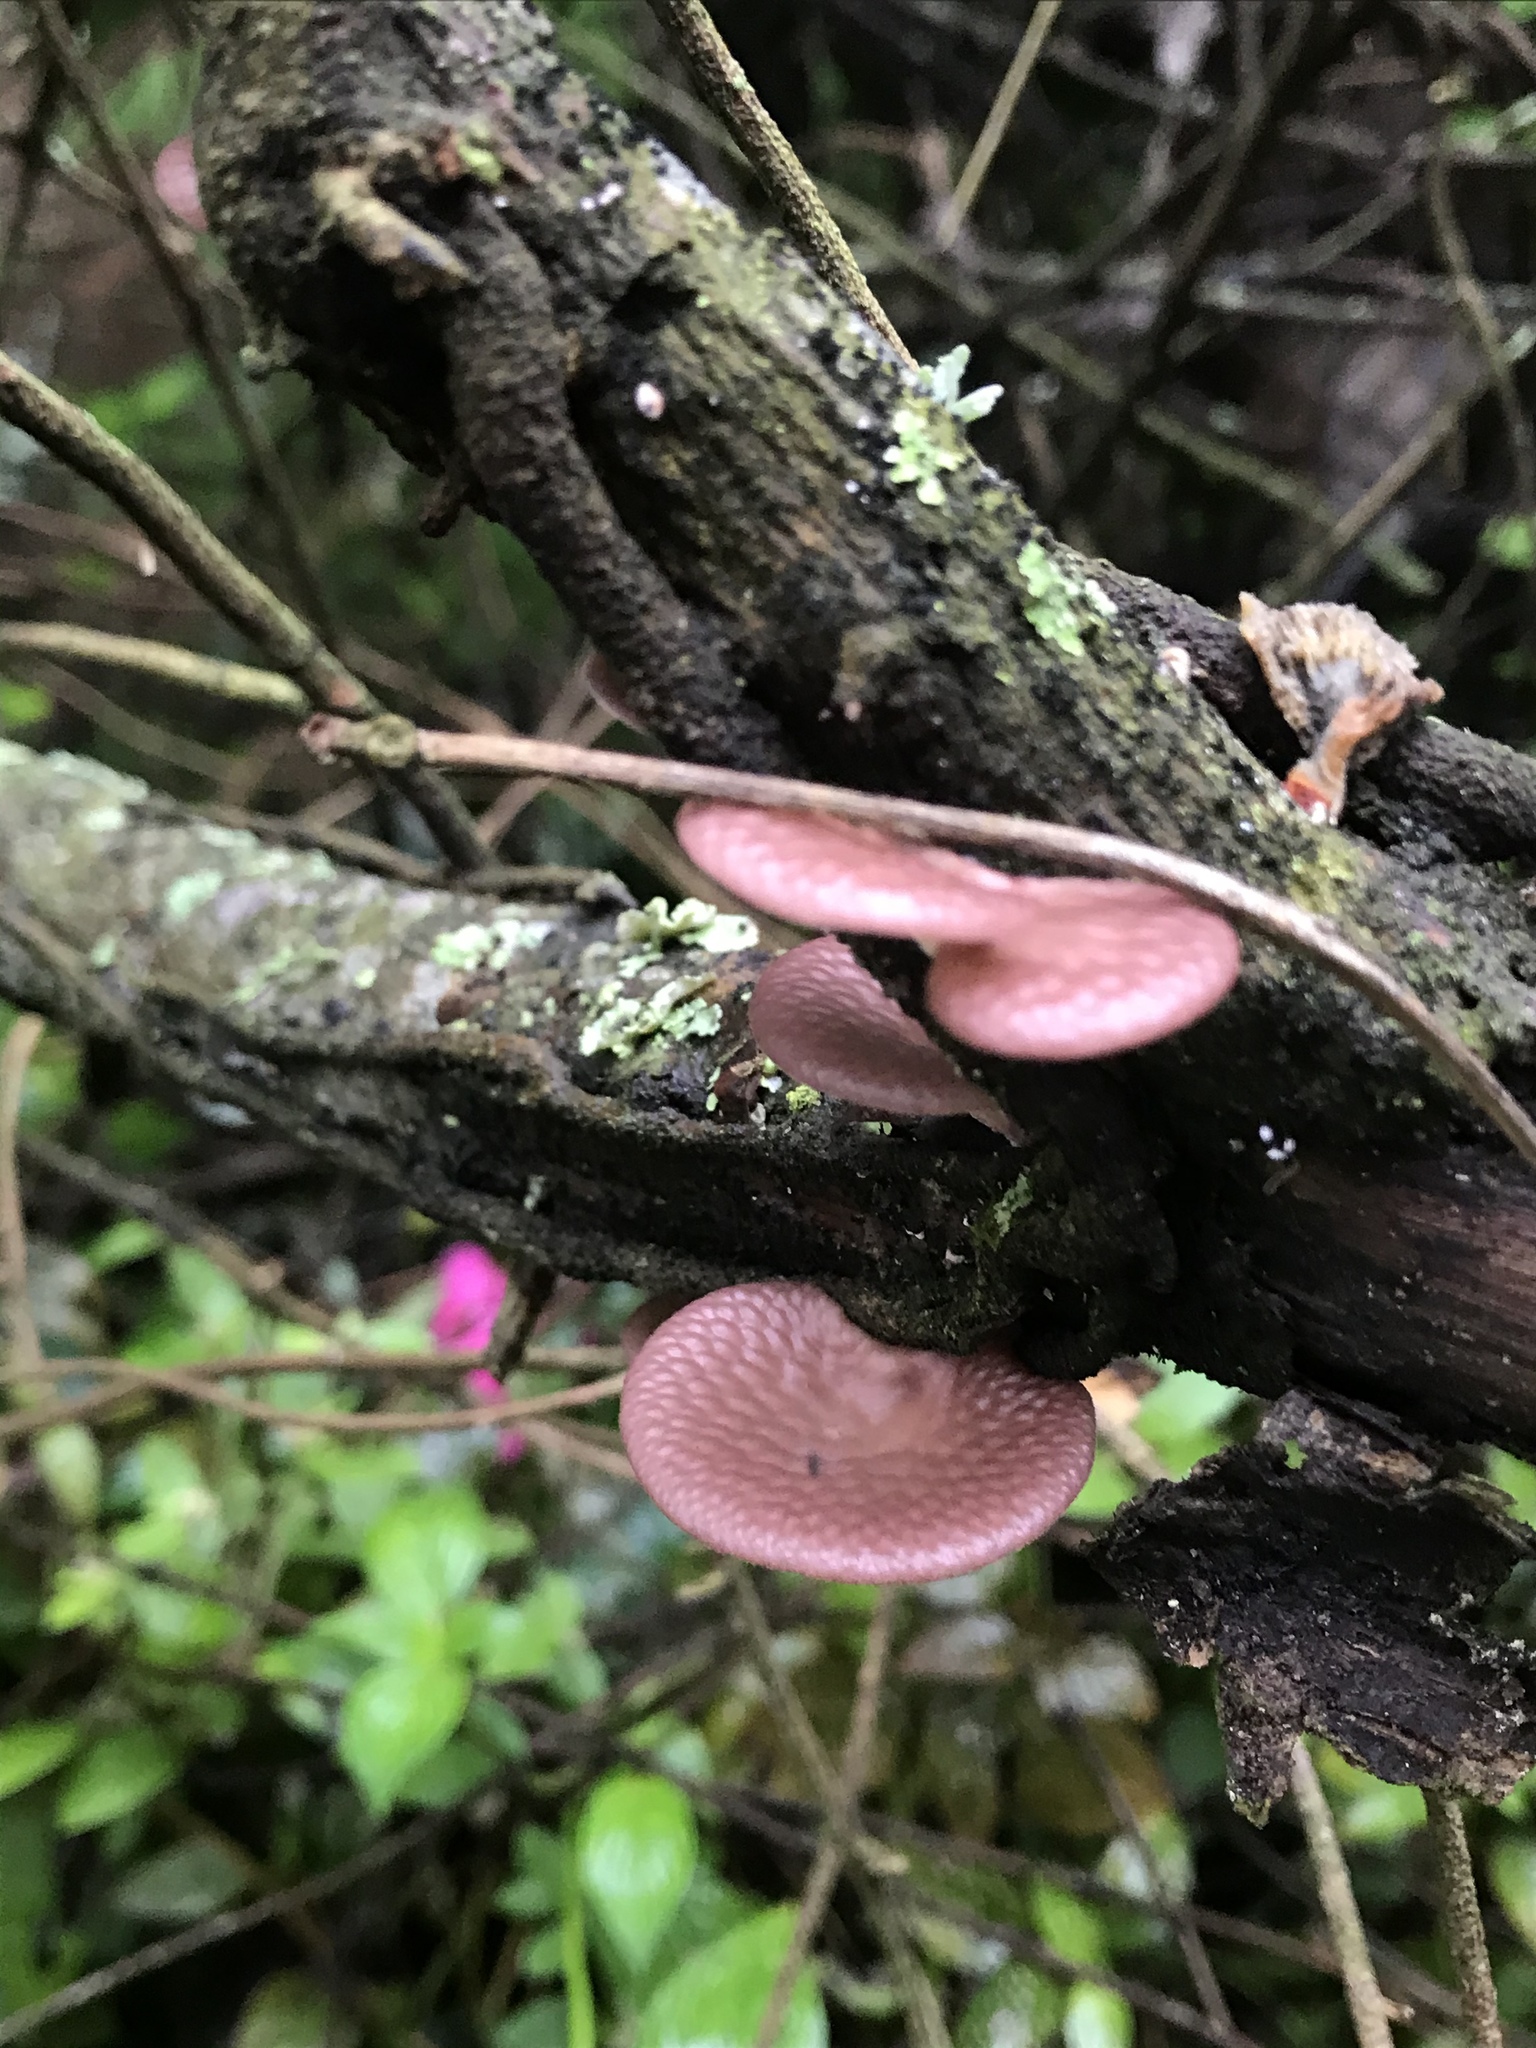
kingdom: Fungi
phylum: Basidiomycota
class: Agaricomycetes
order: Polyporales
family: Polyporaceae
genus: Neofavolus
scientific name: Neofavolus subpurpurascens
